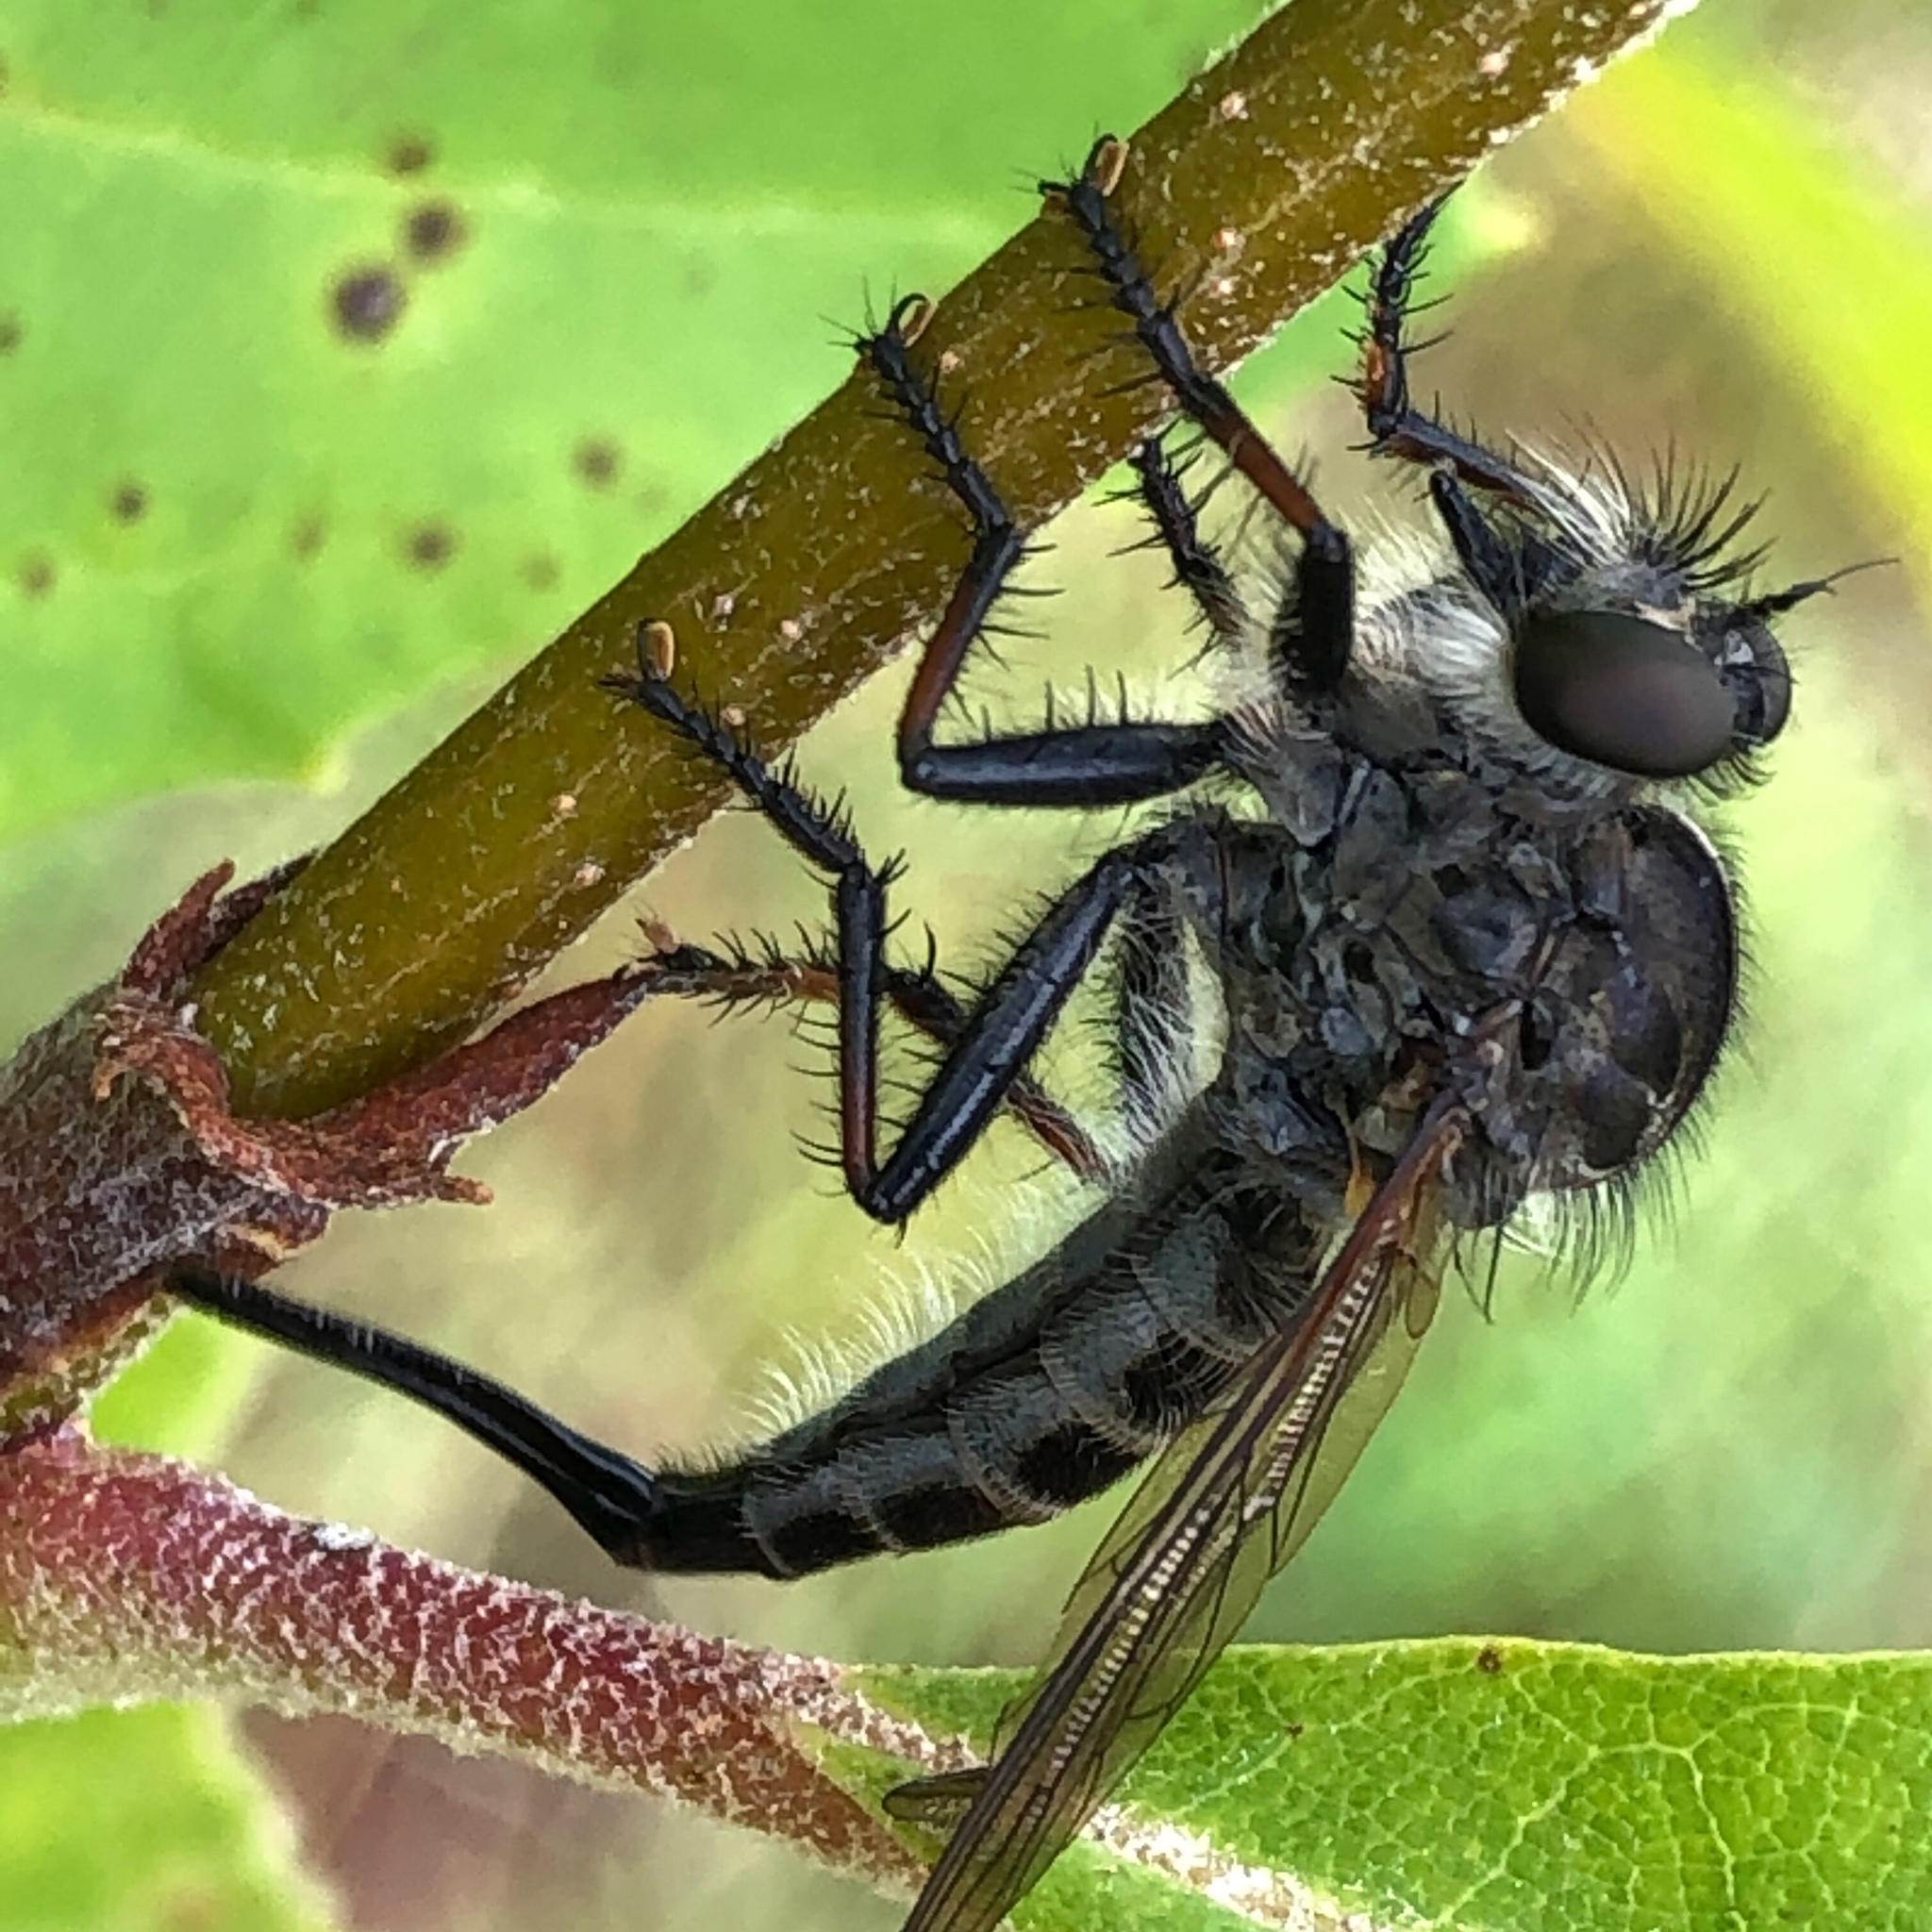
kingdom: Animalia
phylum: Arthropoda
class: Insecta
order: Diptera
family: Asilidae
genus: Efferia
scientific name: Efferia aestuans
